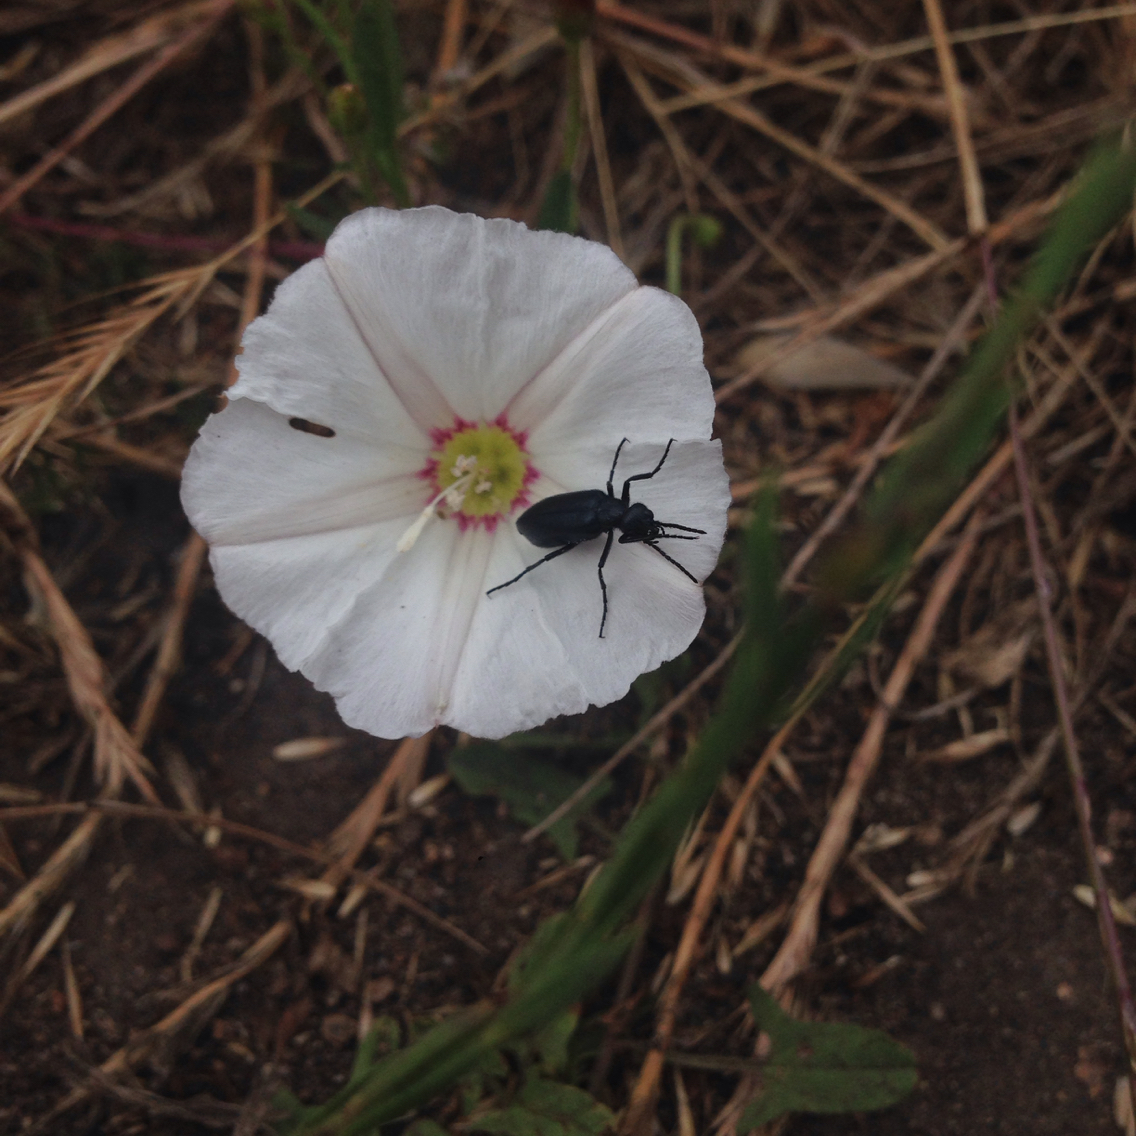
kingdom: Plantae
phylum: Tracheophyta
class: Magnoliopsida
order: Solanales
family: Convolvulaceae
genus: Convolvulus
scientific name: Convolvulus arvensis
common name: Field bindweed
